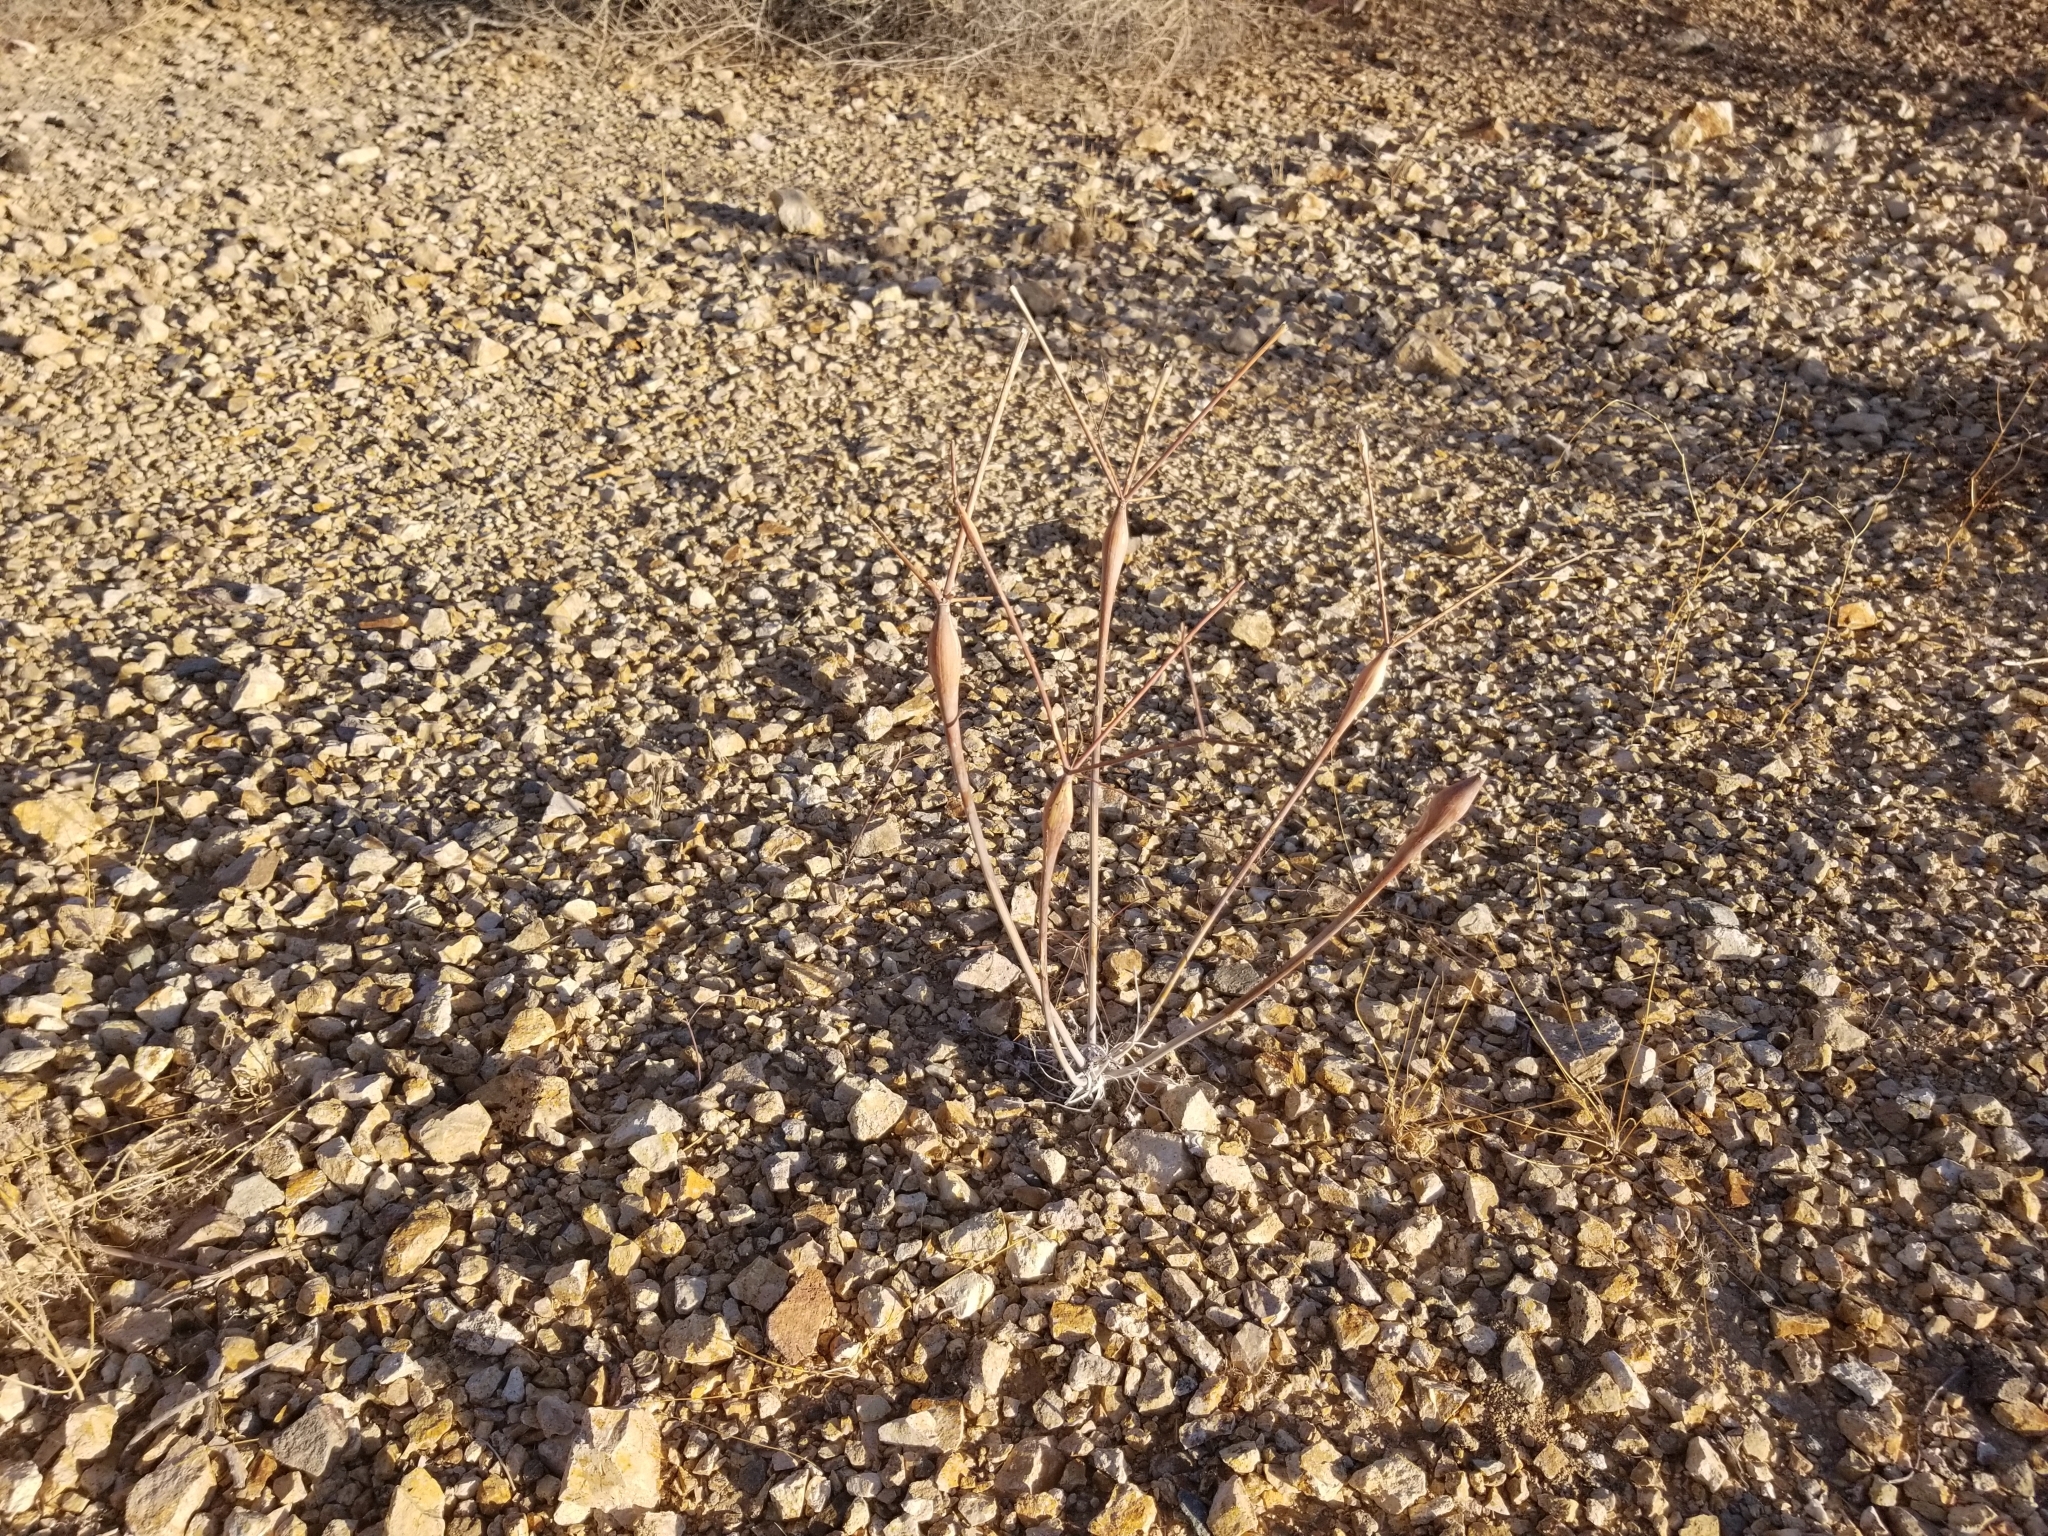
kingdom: Plantae
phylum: Tracheophyta
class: Magnoliopsida
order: Caryophyllales
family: Polygonaceae
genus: Eriogonum
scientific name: Eriogonum inflatum
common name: Desert trumpet
